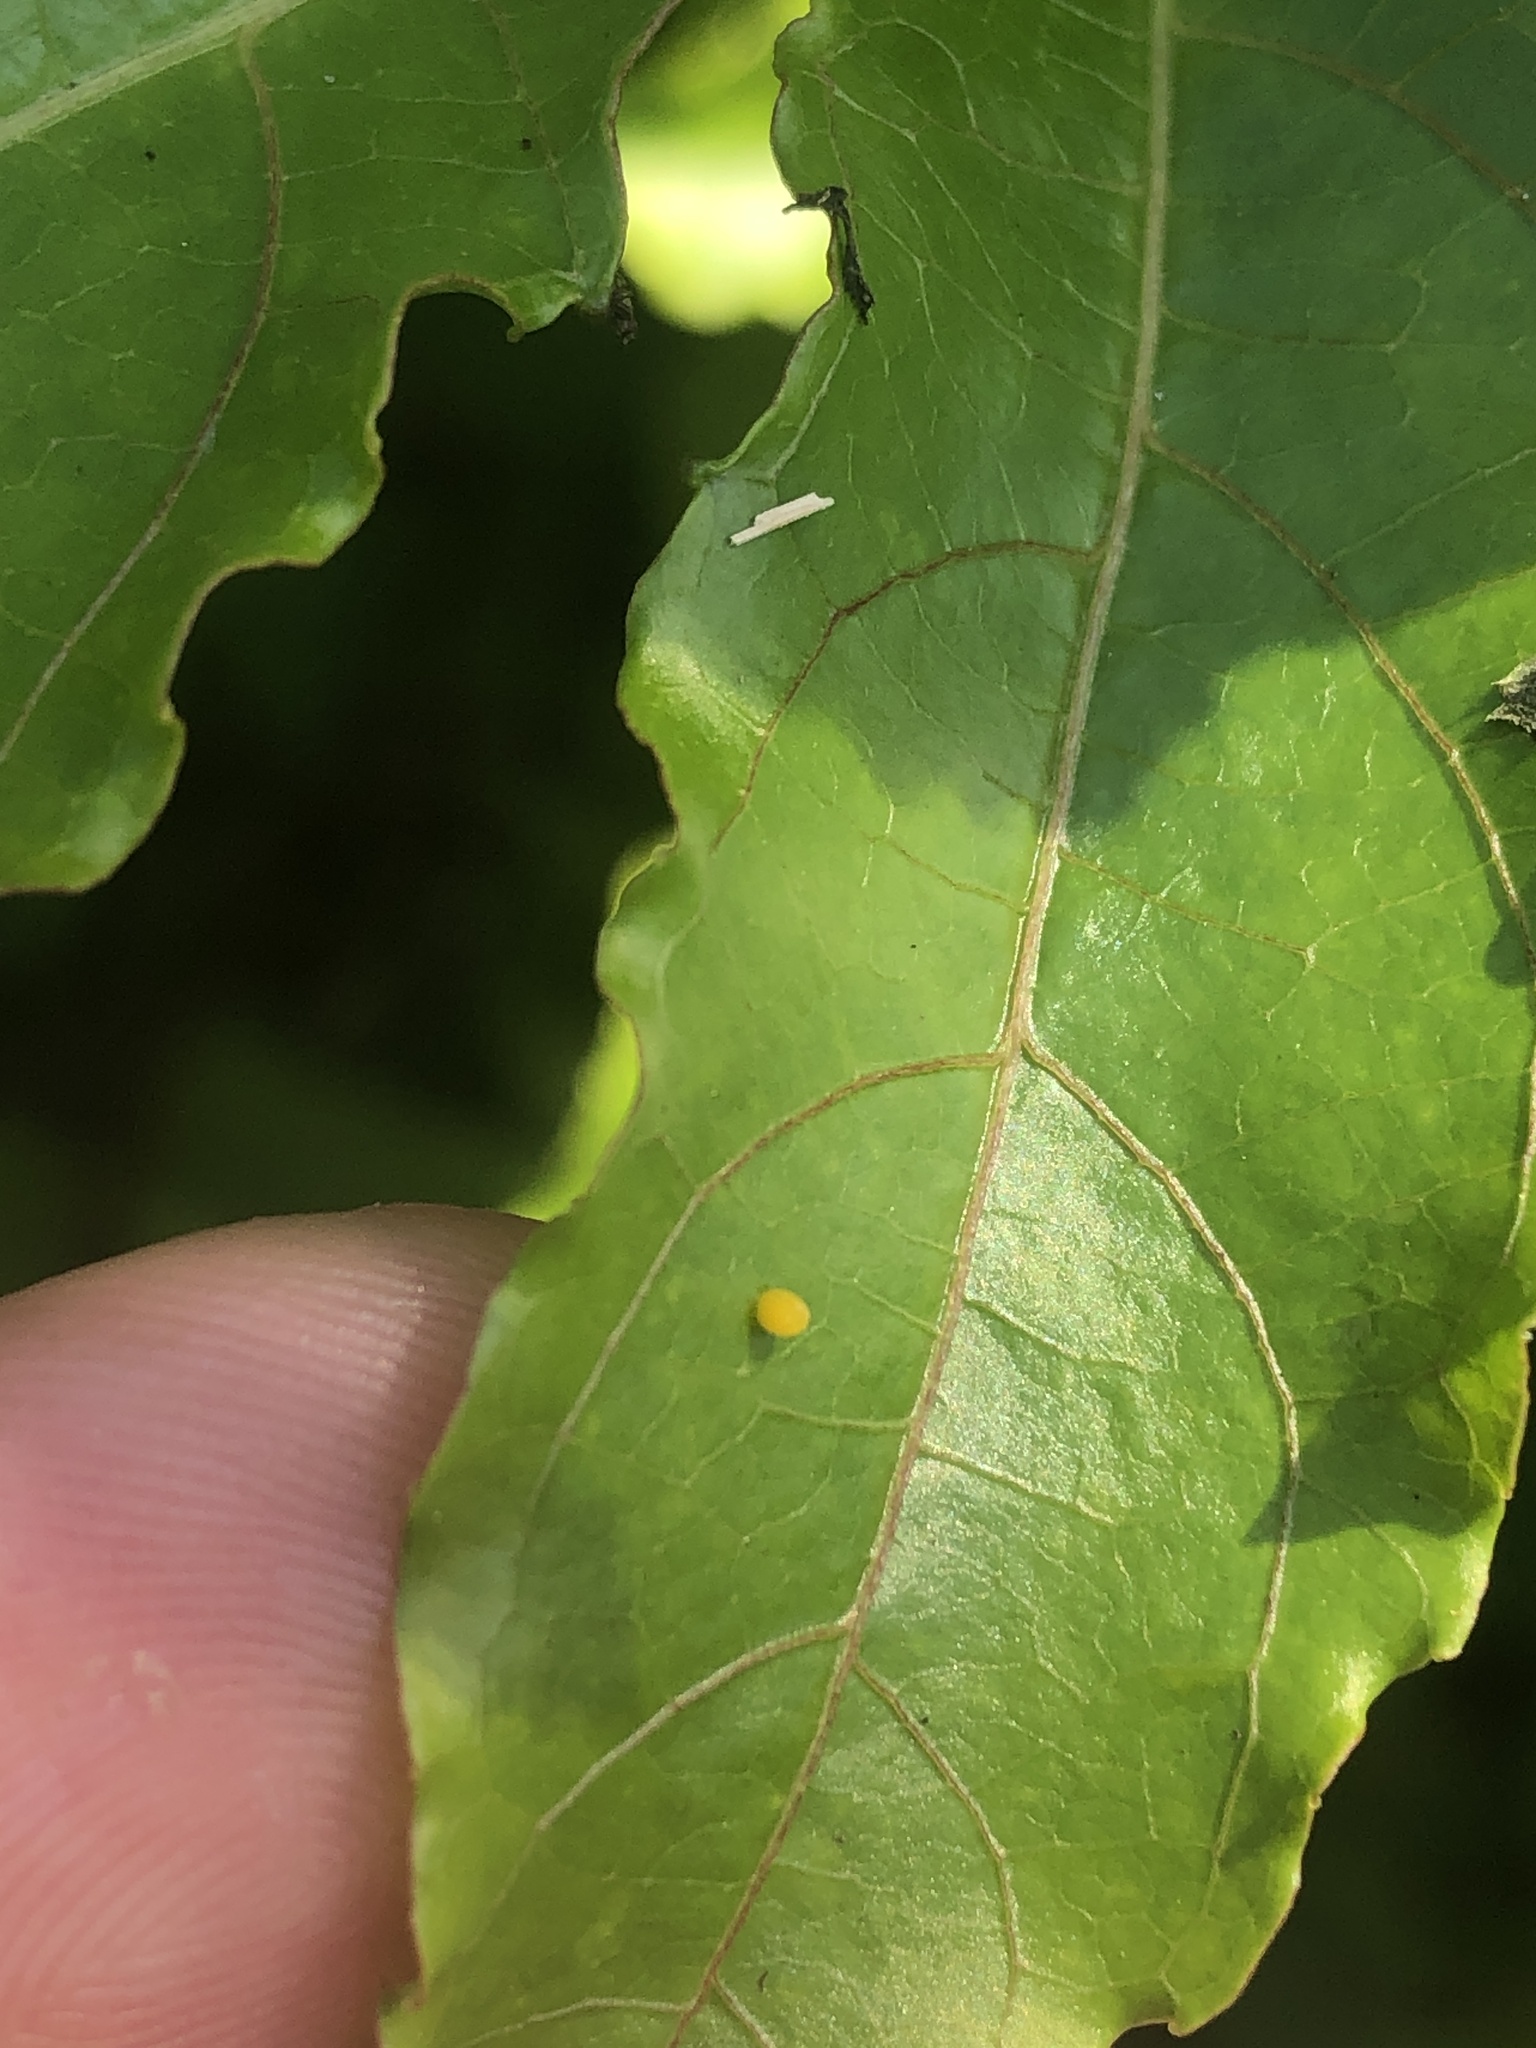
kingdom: Animalia
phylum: Arthropoda
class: Insecta
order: Lepidoptera
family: Nymphalidae
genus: Dione
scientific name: Dione vanillae
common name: Gulf fritillary
